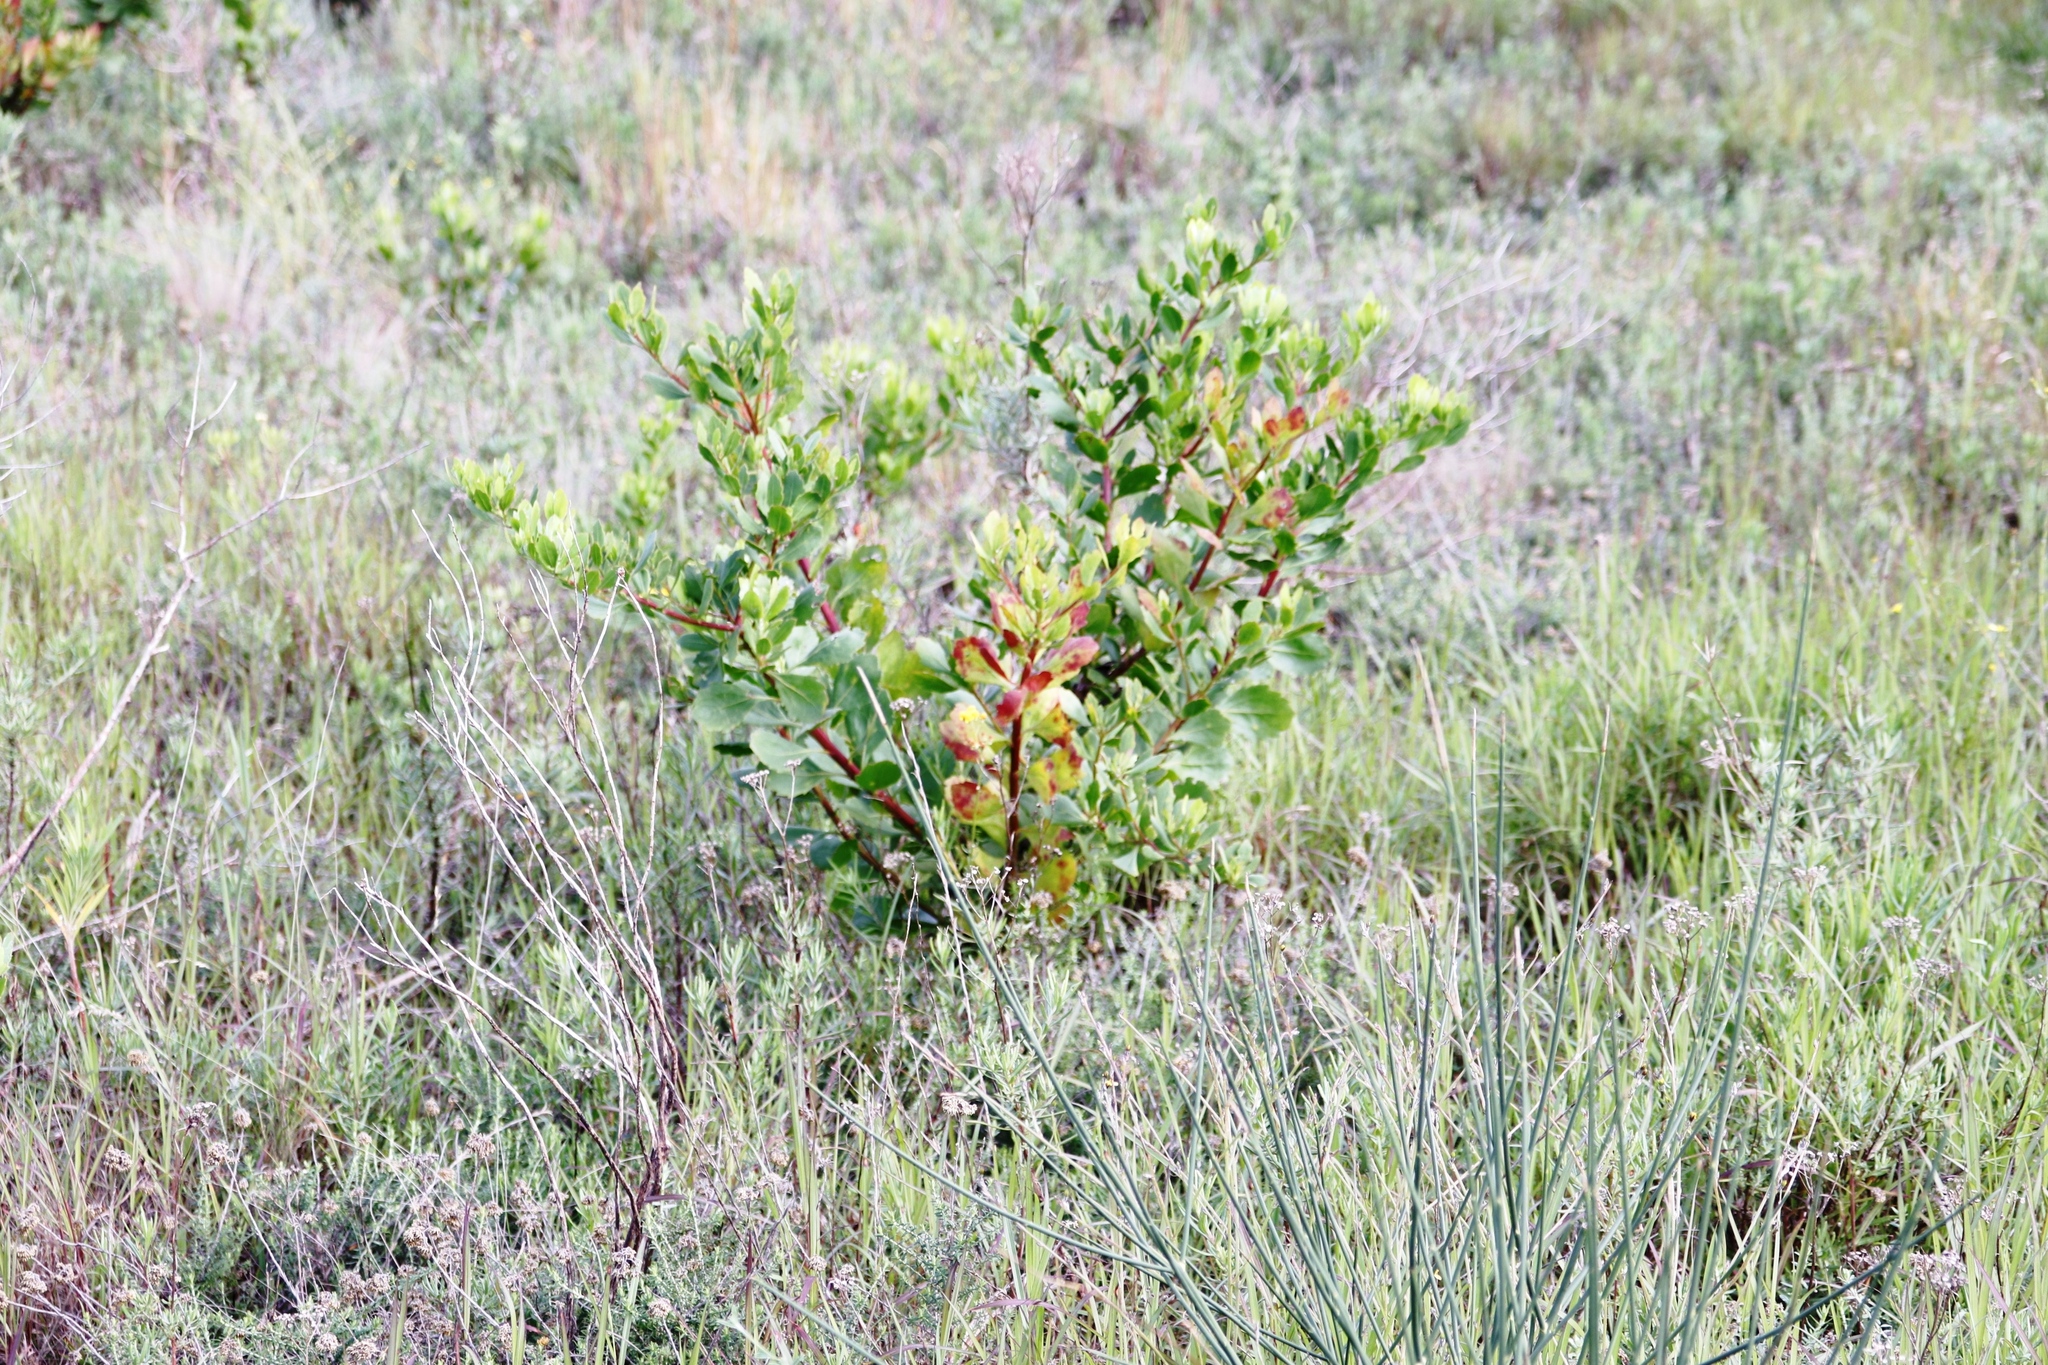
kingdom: Plantae
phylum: Tracheophyta
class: Magnoliopsida
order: Asterales
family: Asteraceae
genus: Osteospermum
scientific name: Osteospermum moniliferum
